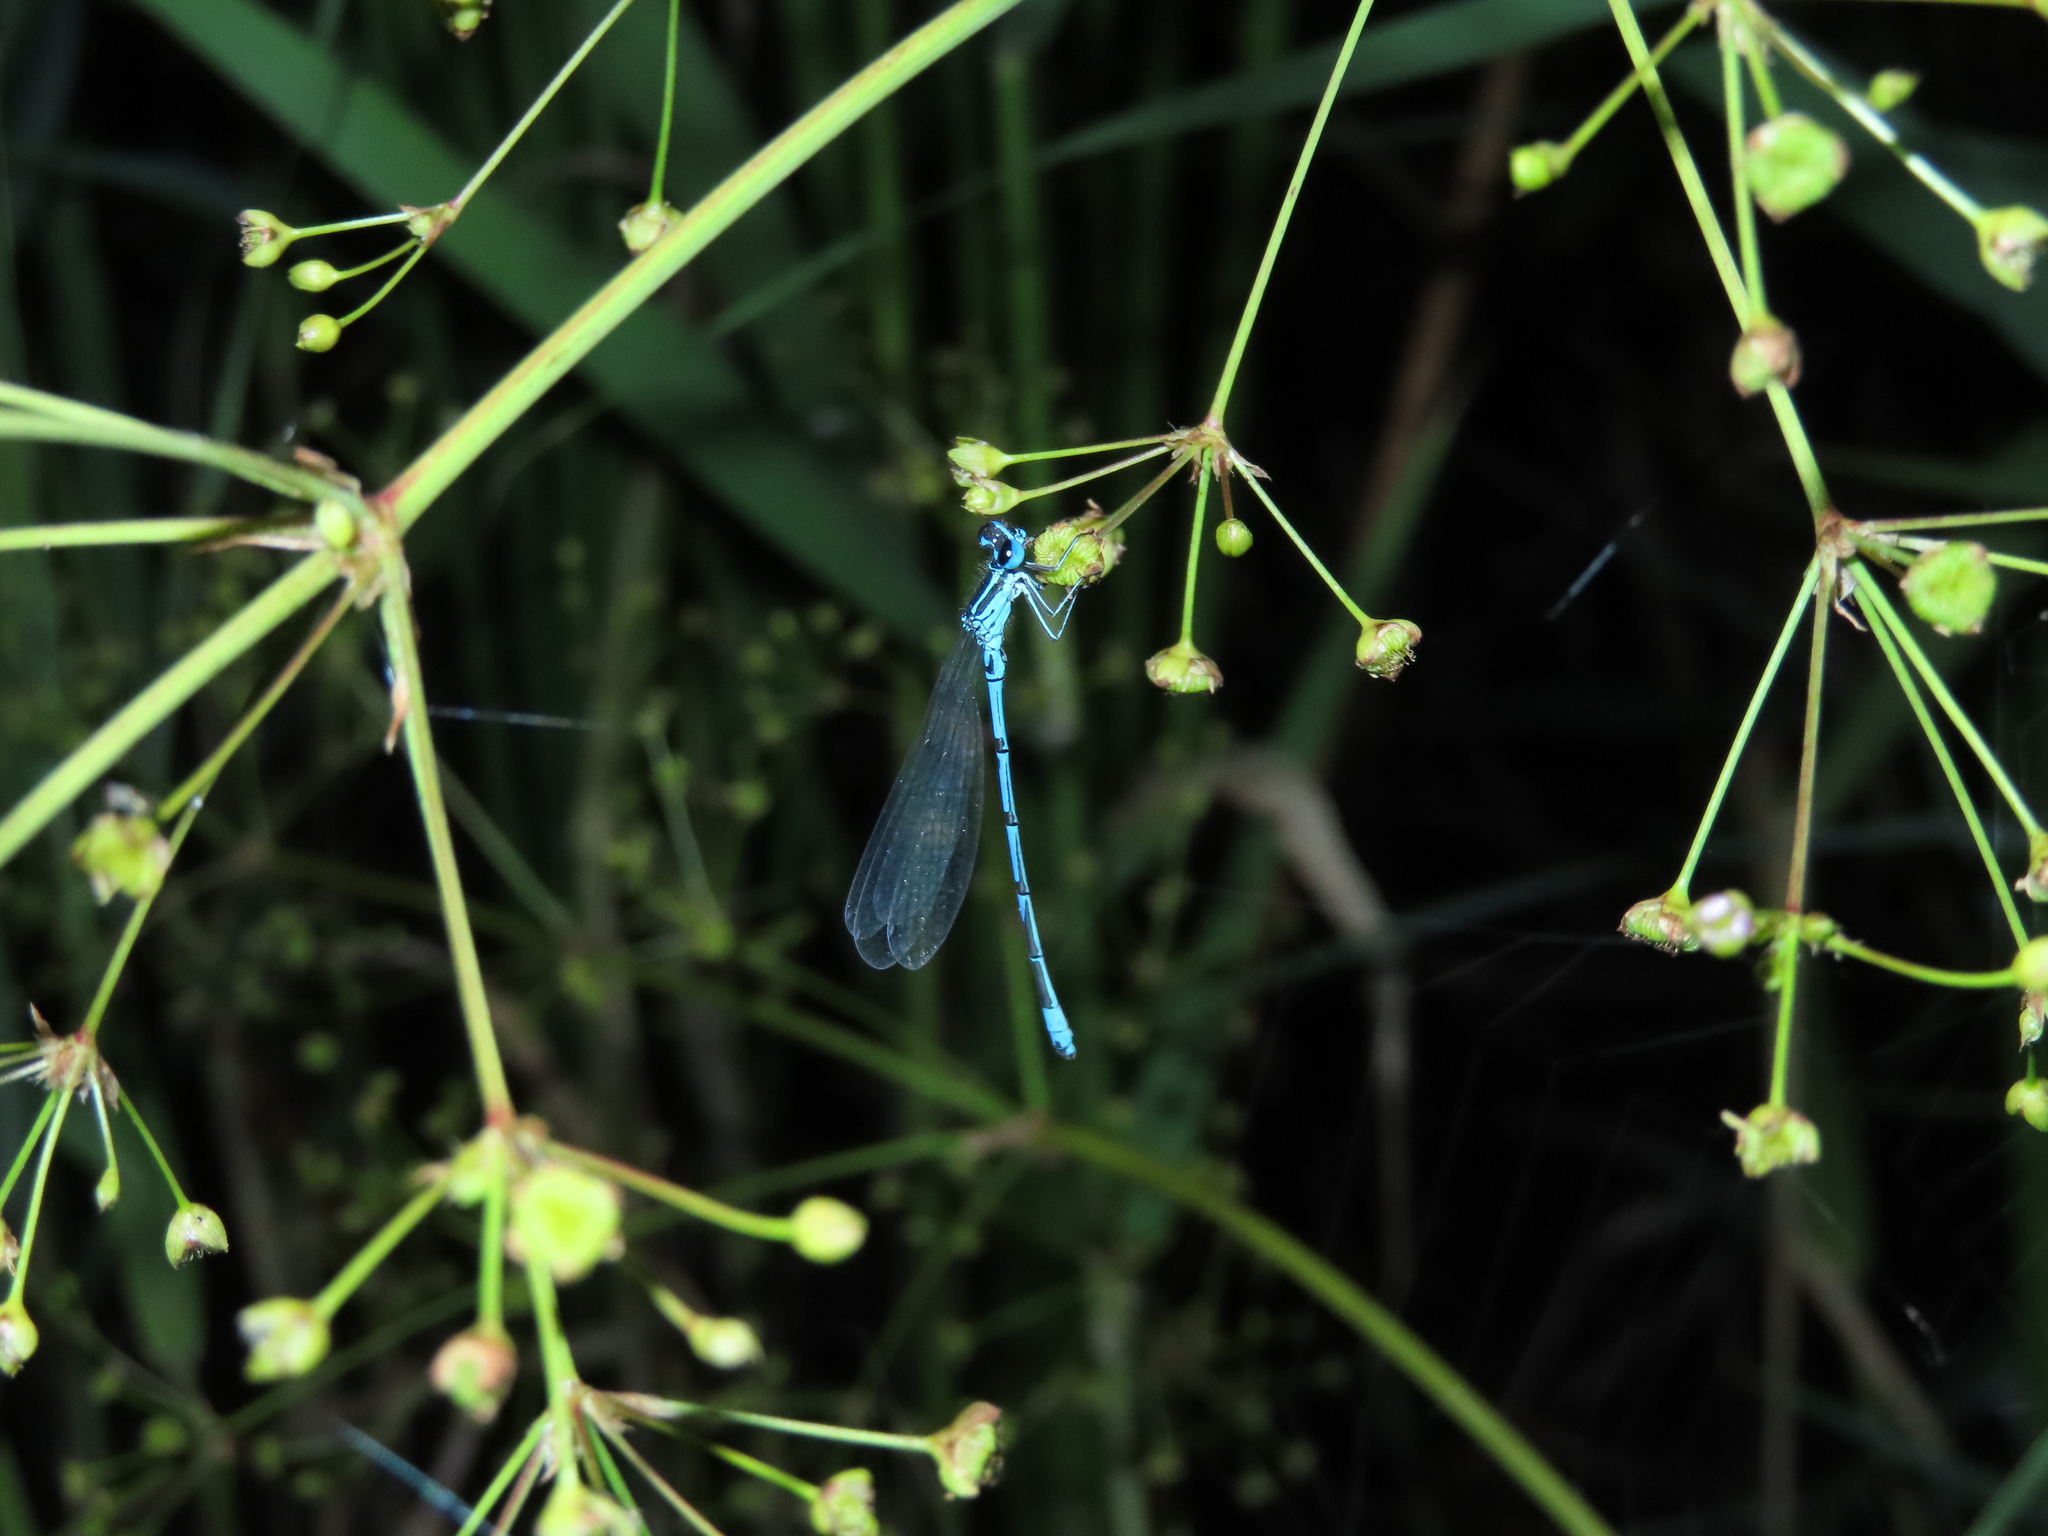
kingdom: Animalia
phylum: Arthropoda
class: Insecta
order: Odonata
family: Coenagrionidae
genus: Coenagrion
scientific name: Coenagrion ponticum
